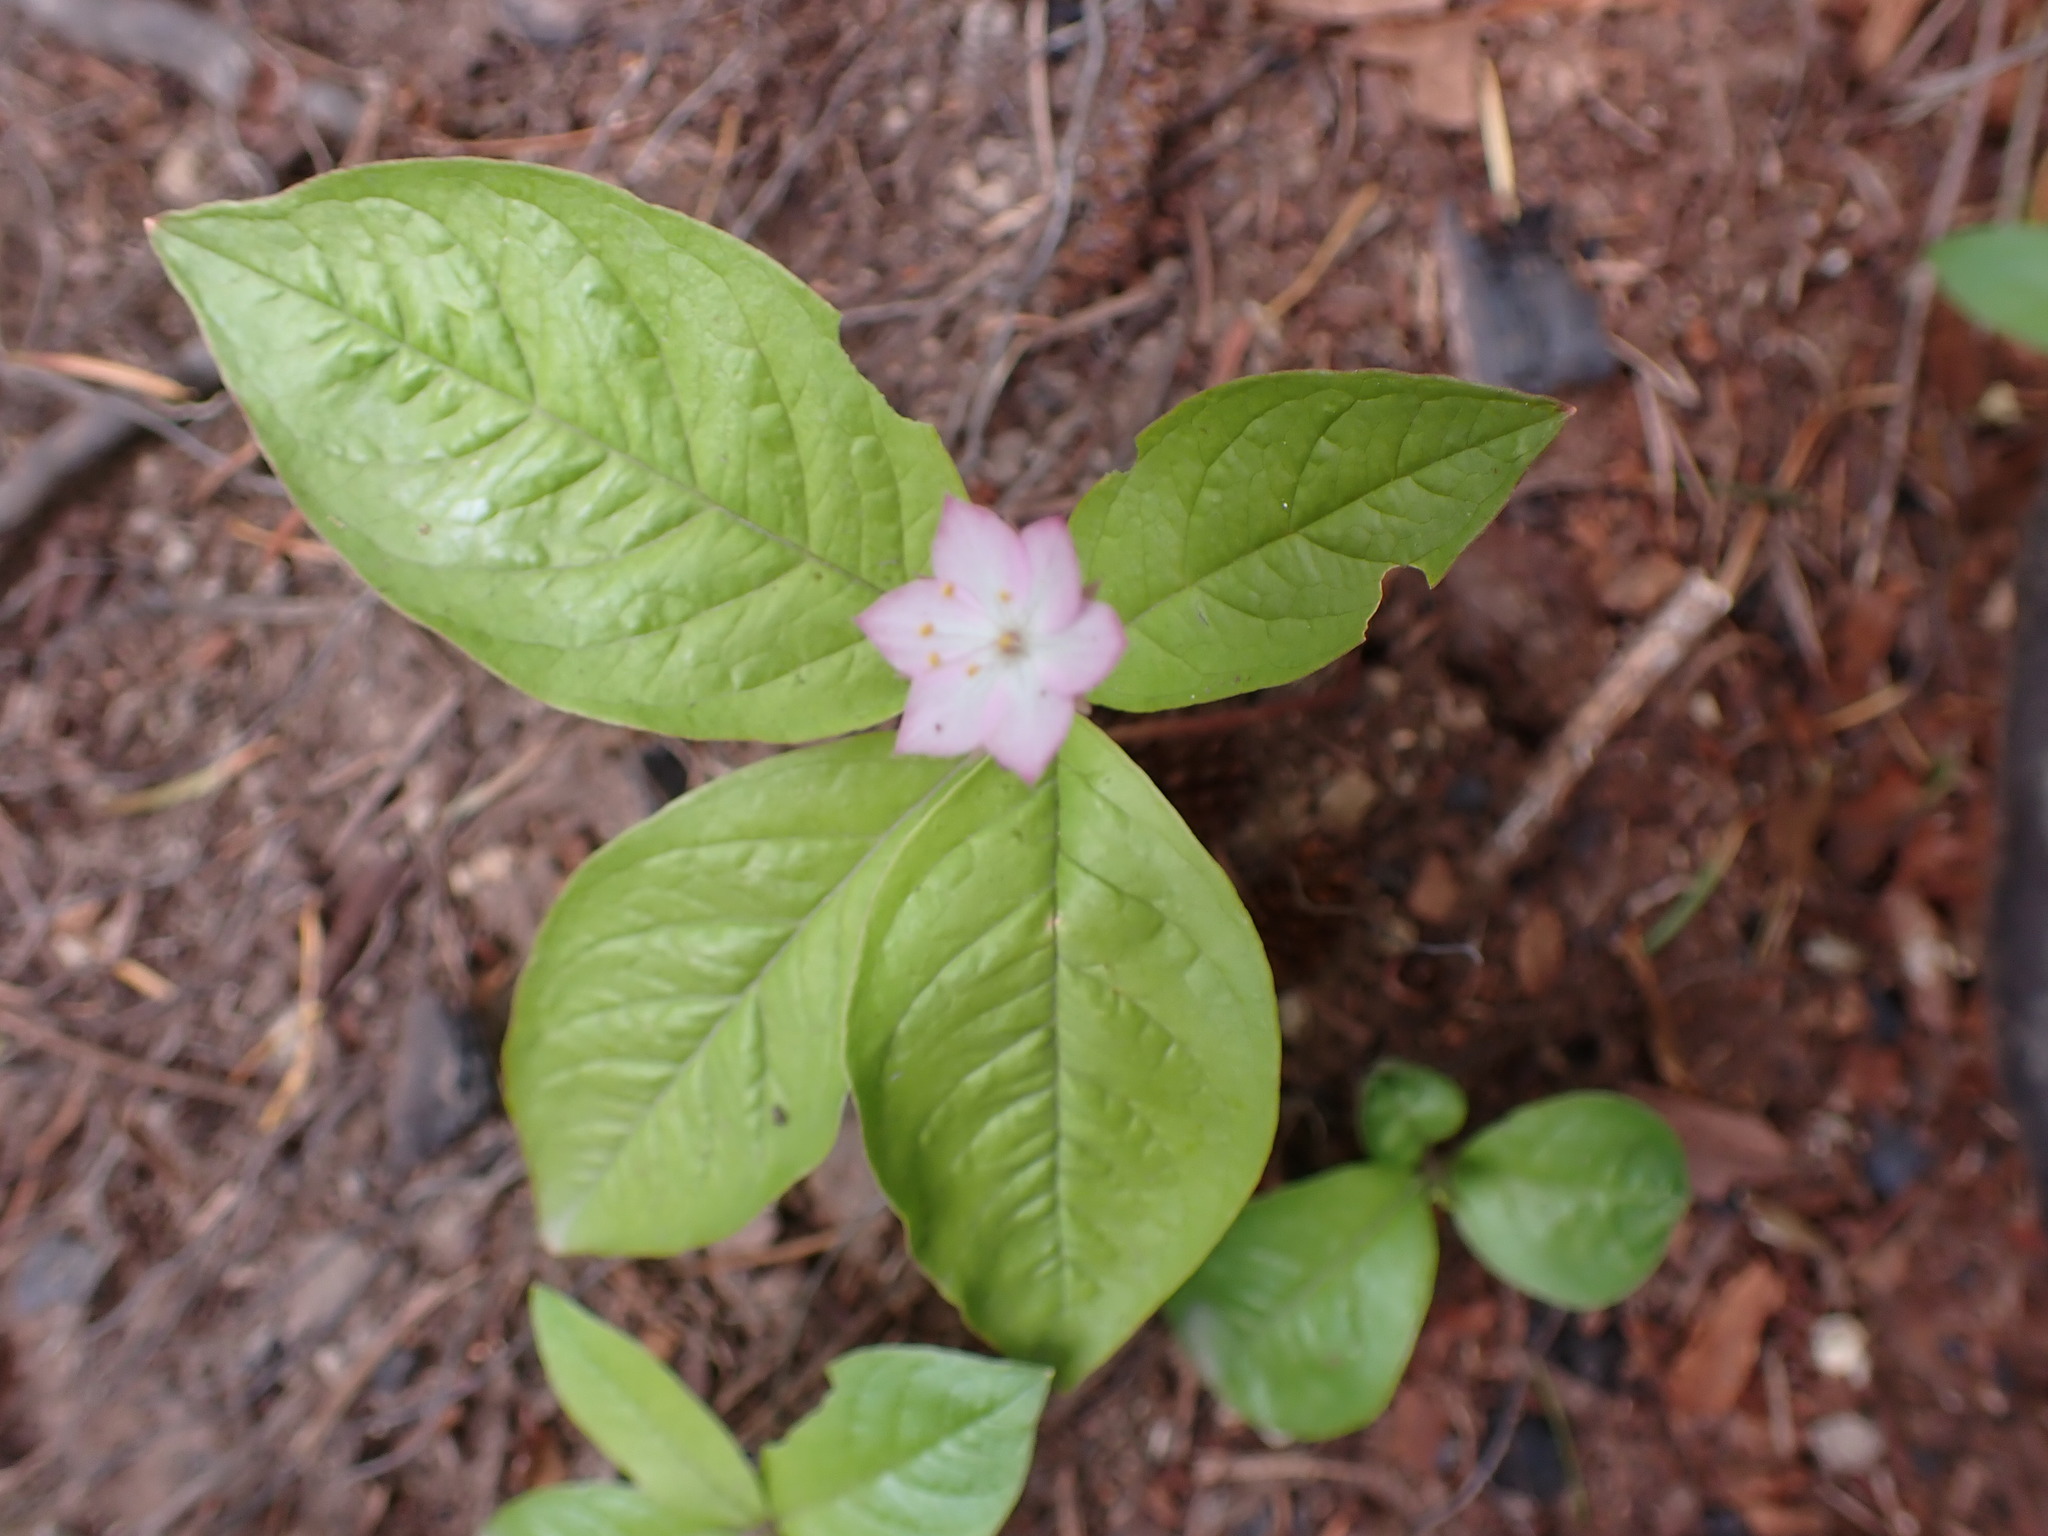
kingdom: Plantae
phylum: Tracheophyta
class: Magnoliopsida
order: Ericales
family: Primulaceae
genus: Lysimachia
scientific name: Lysimachia latifolia
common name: Pacific starflower
